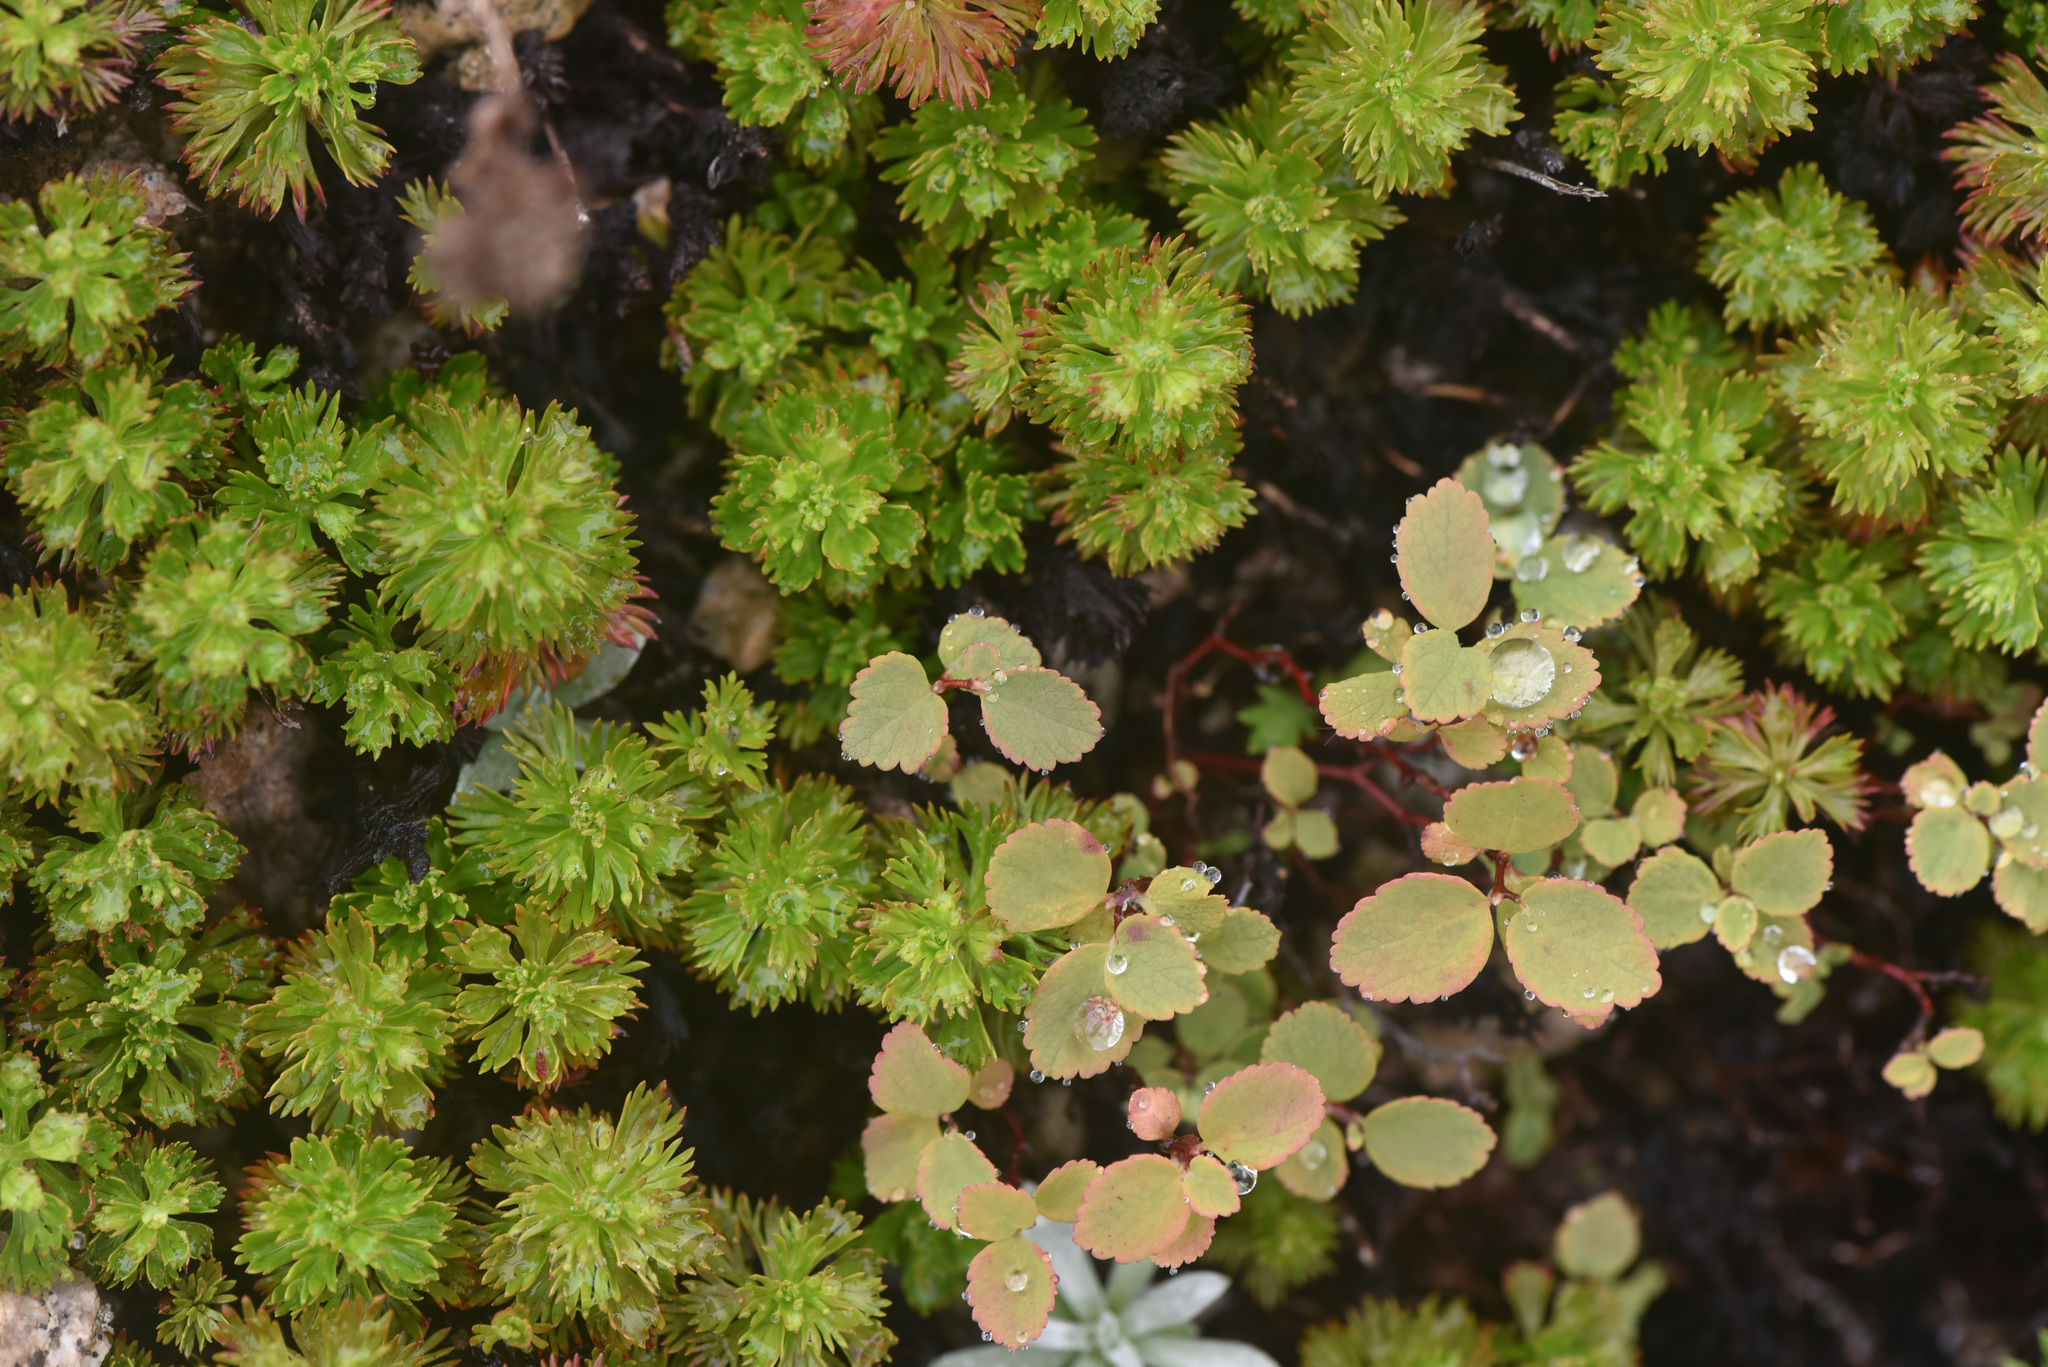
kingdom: Plantae
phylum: Tracheophyta
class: Magnoliopsida
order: Rosales
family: Rosaceae
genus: Luetkea
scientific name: Luetkea pectinata
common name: Partridgefoot
